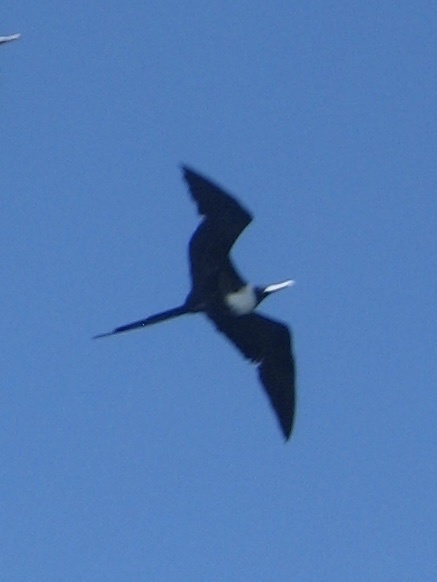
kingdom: Animalia
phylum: Chordata
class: Aves
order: Suliformes
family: Fregatidae
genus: Fregata
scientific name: Fregata magnificens
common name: Magnificent frigatebird
